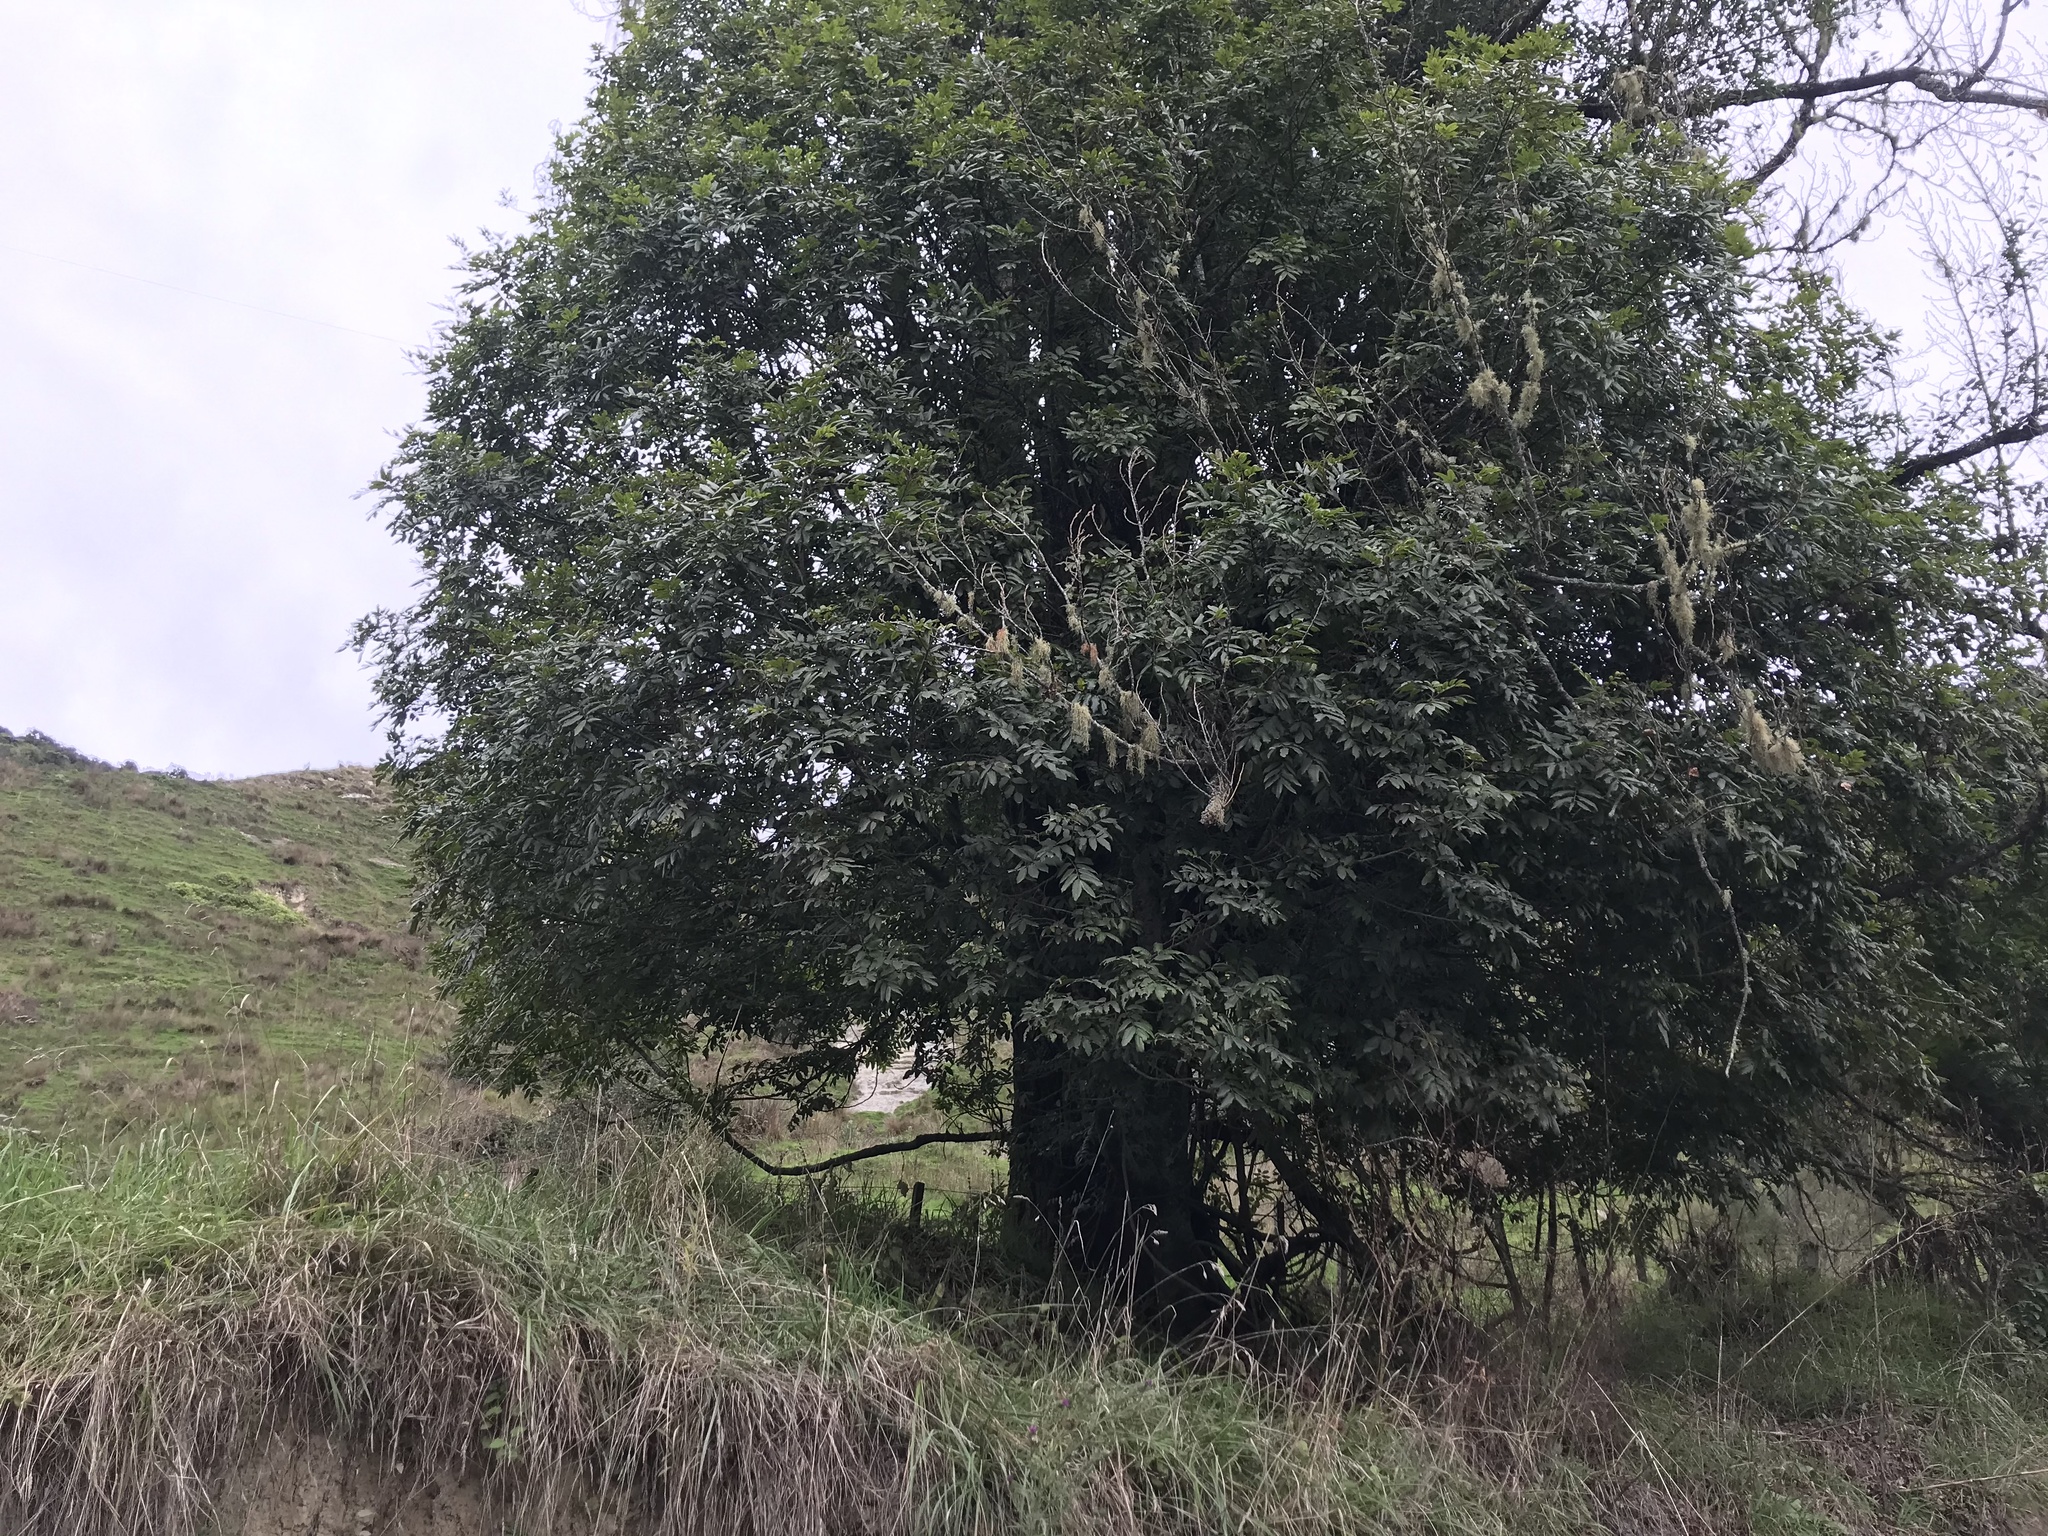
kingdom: Plantae
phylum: Tracheophyta
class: Magnoliopsida
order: Sapindales
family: Sapindaceae
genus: Alectryon
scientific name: Alectryon excelsus
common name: Three kings titoki
